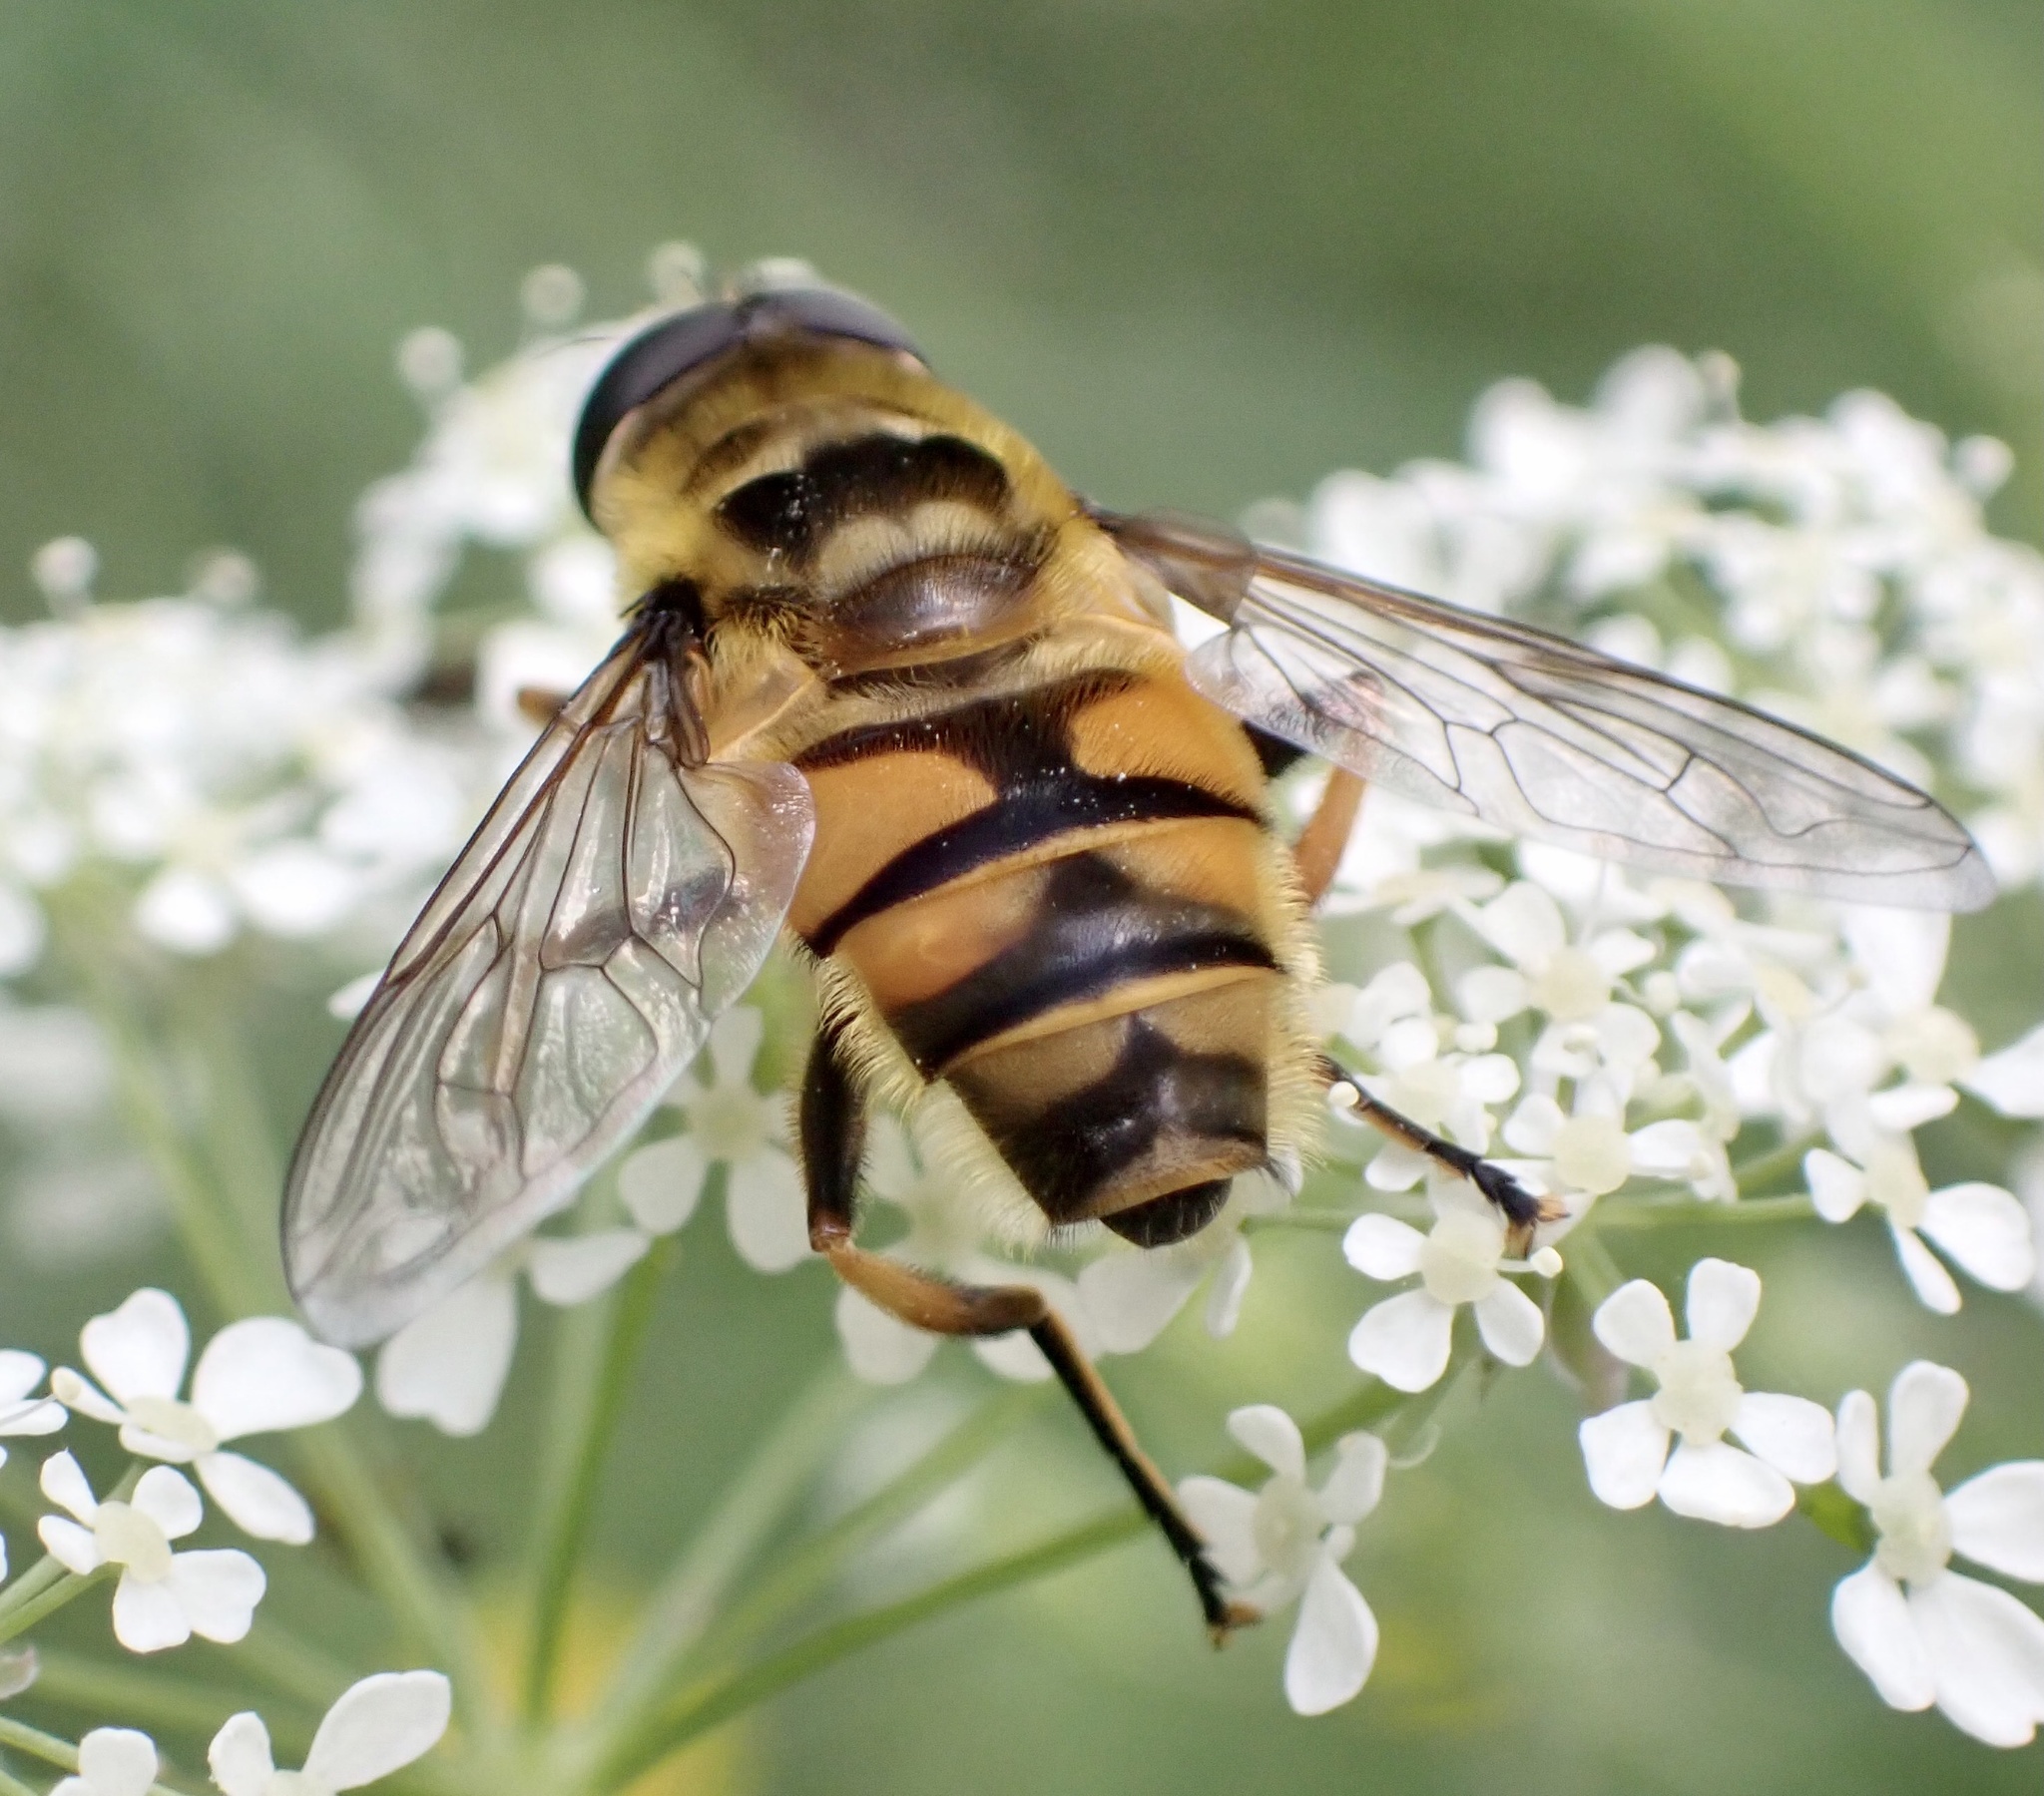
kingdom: Animalia
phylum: Arthropoda
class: Insecta
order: Diptera
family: Syrphidae
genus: Myathropa
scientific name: Myathropa florea
